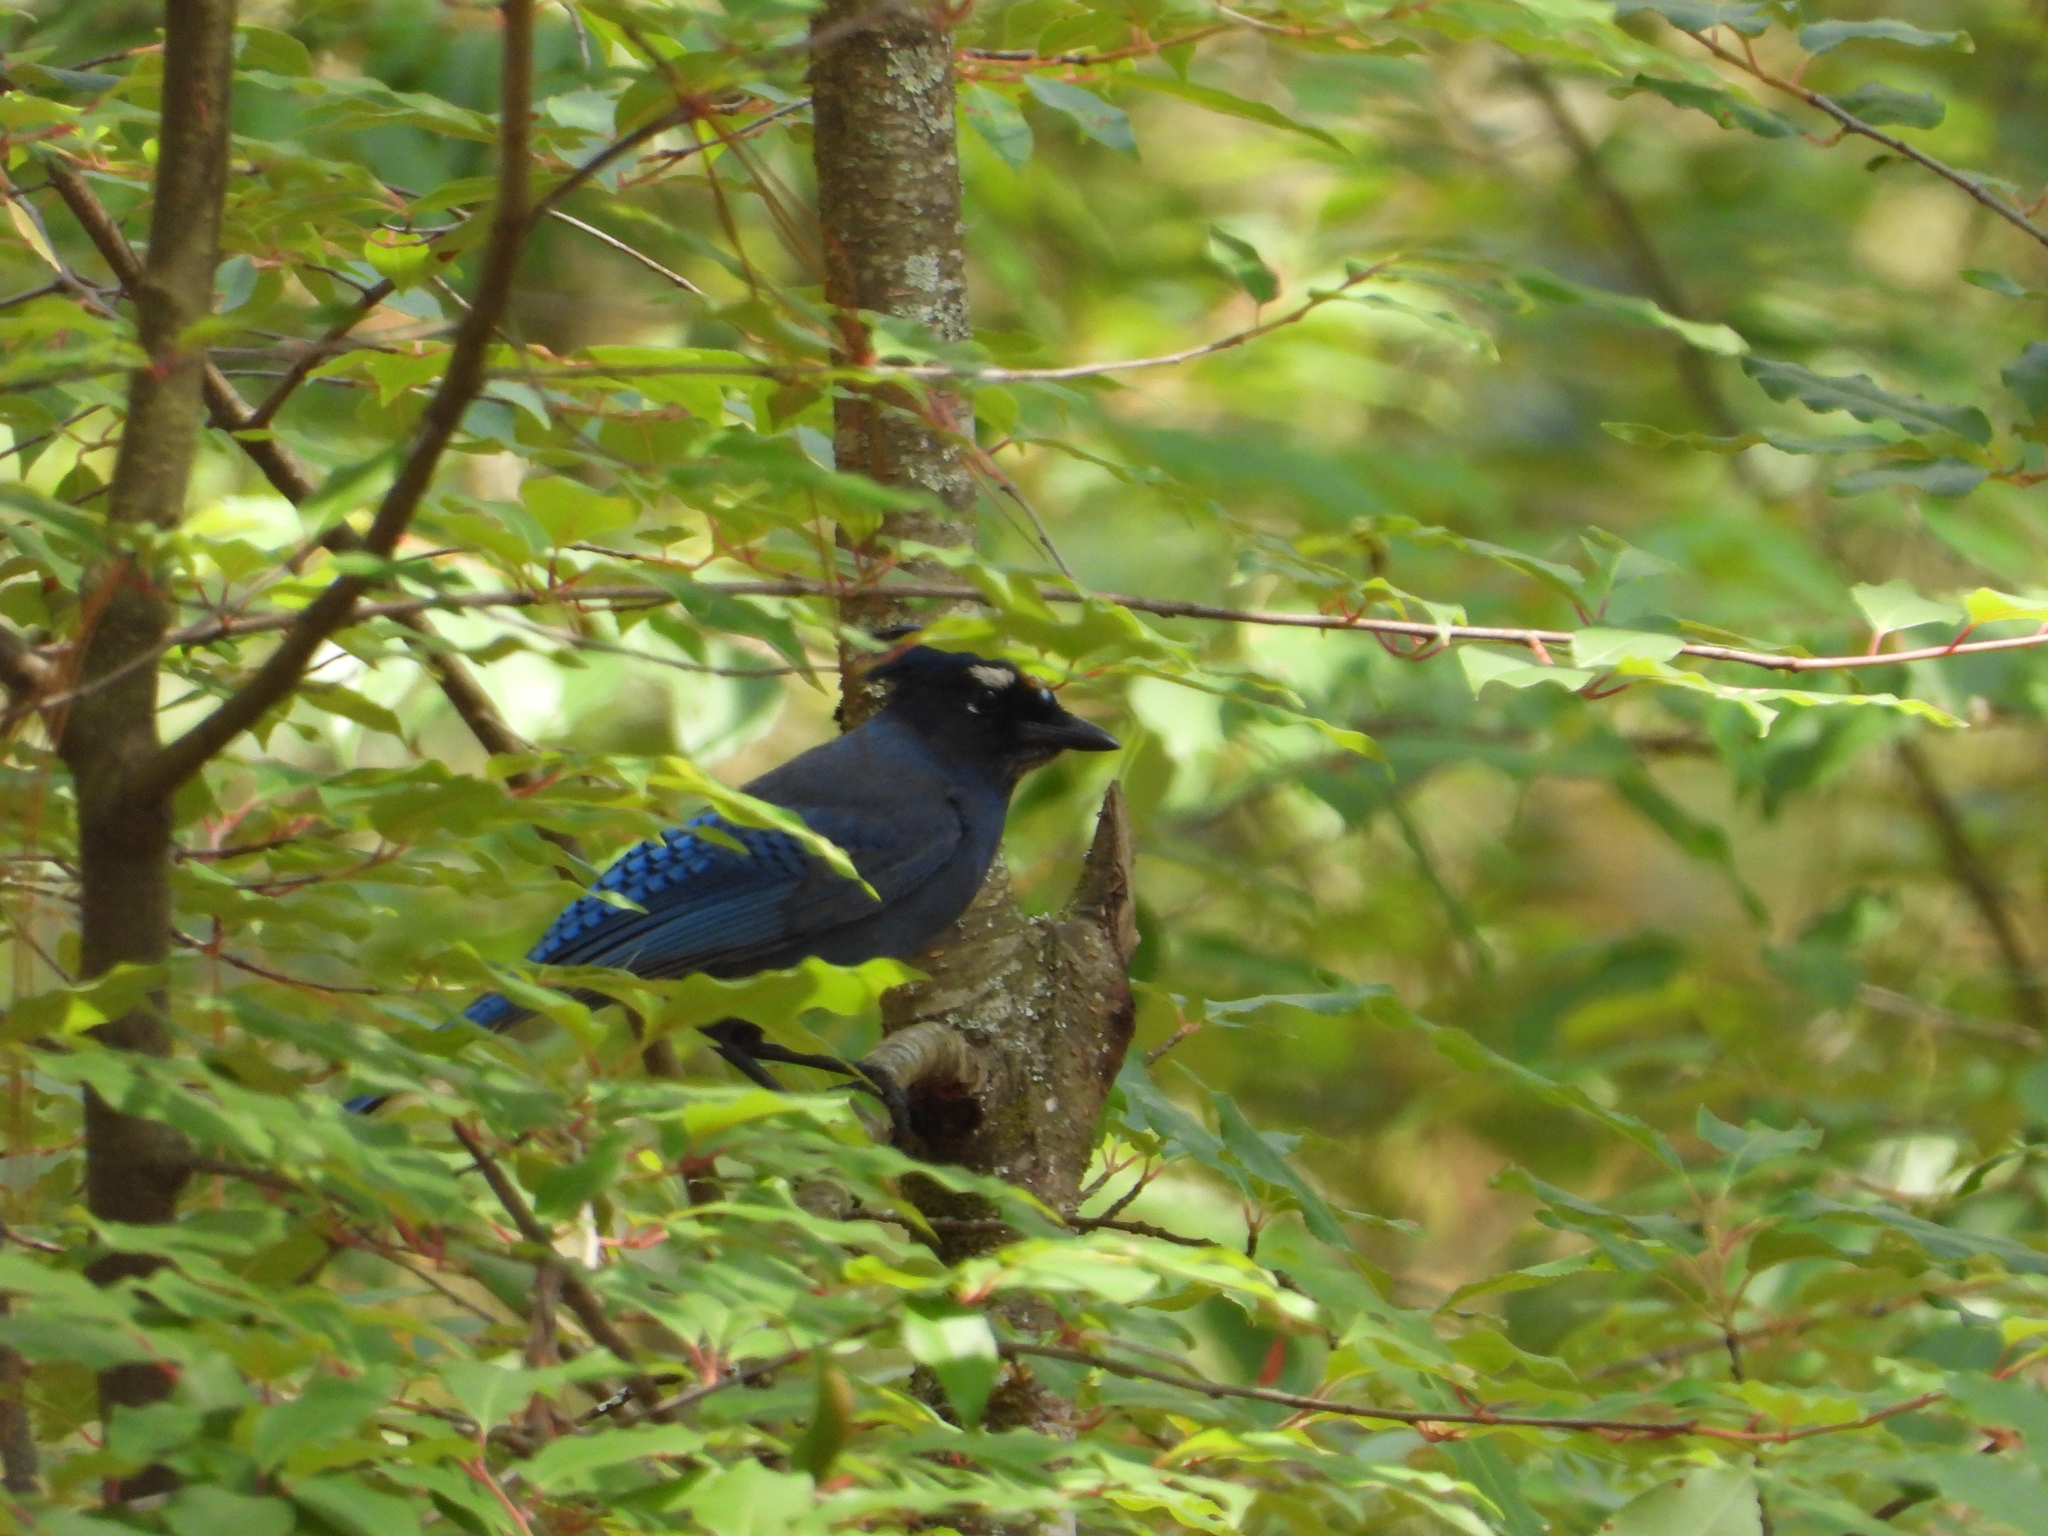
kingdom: Animalia
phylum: Chordata
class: Aves
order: Passeriformes
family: Corvidae
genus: Cyanocitta
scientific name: Cyanocitta stelleri
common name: Steller's jay
